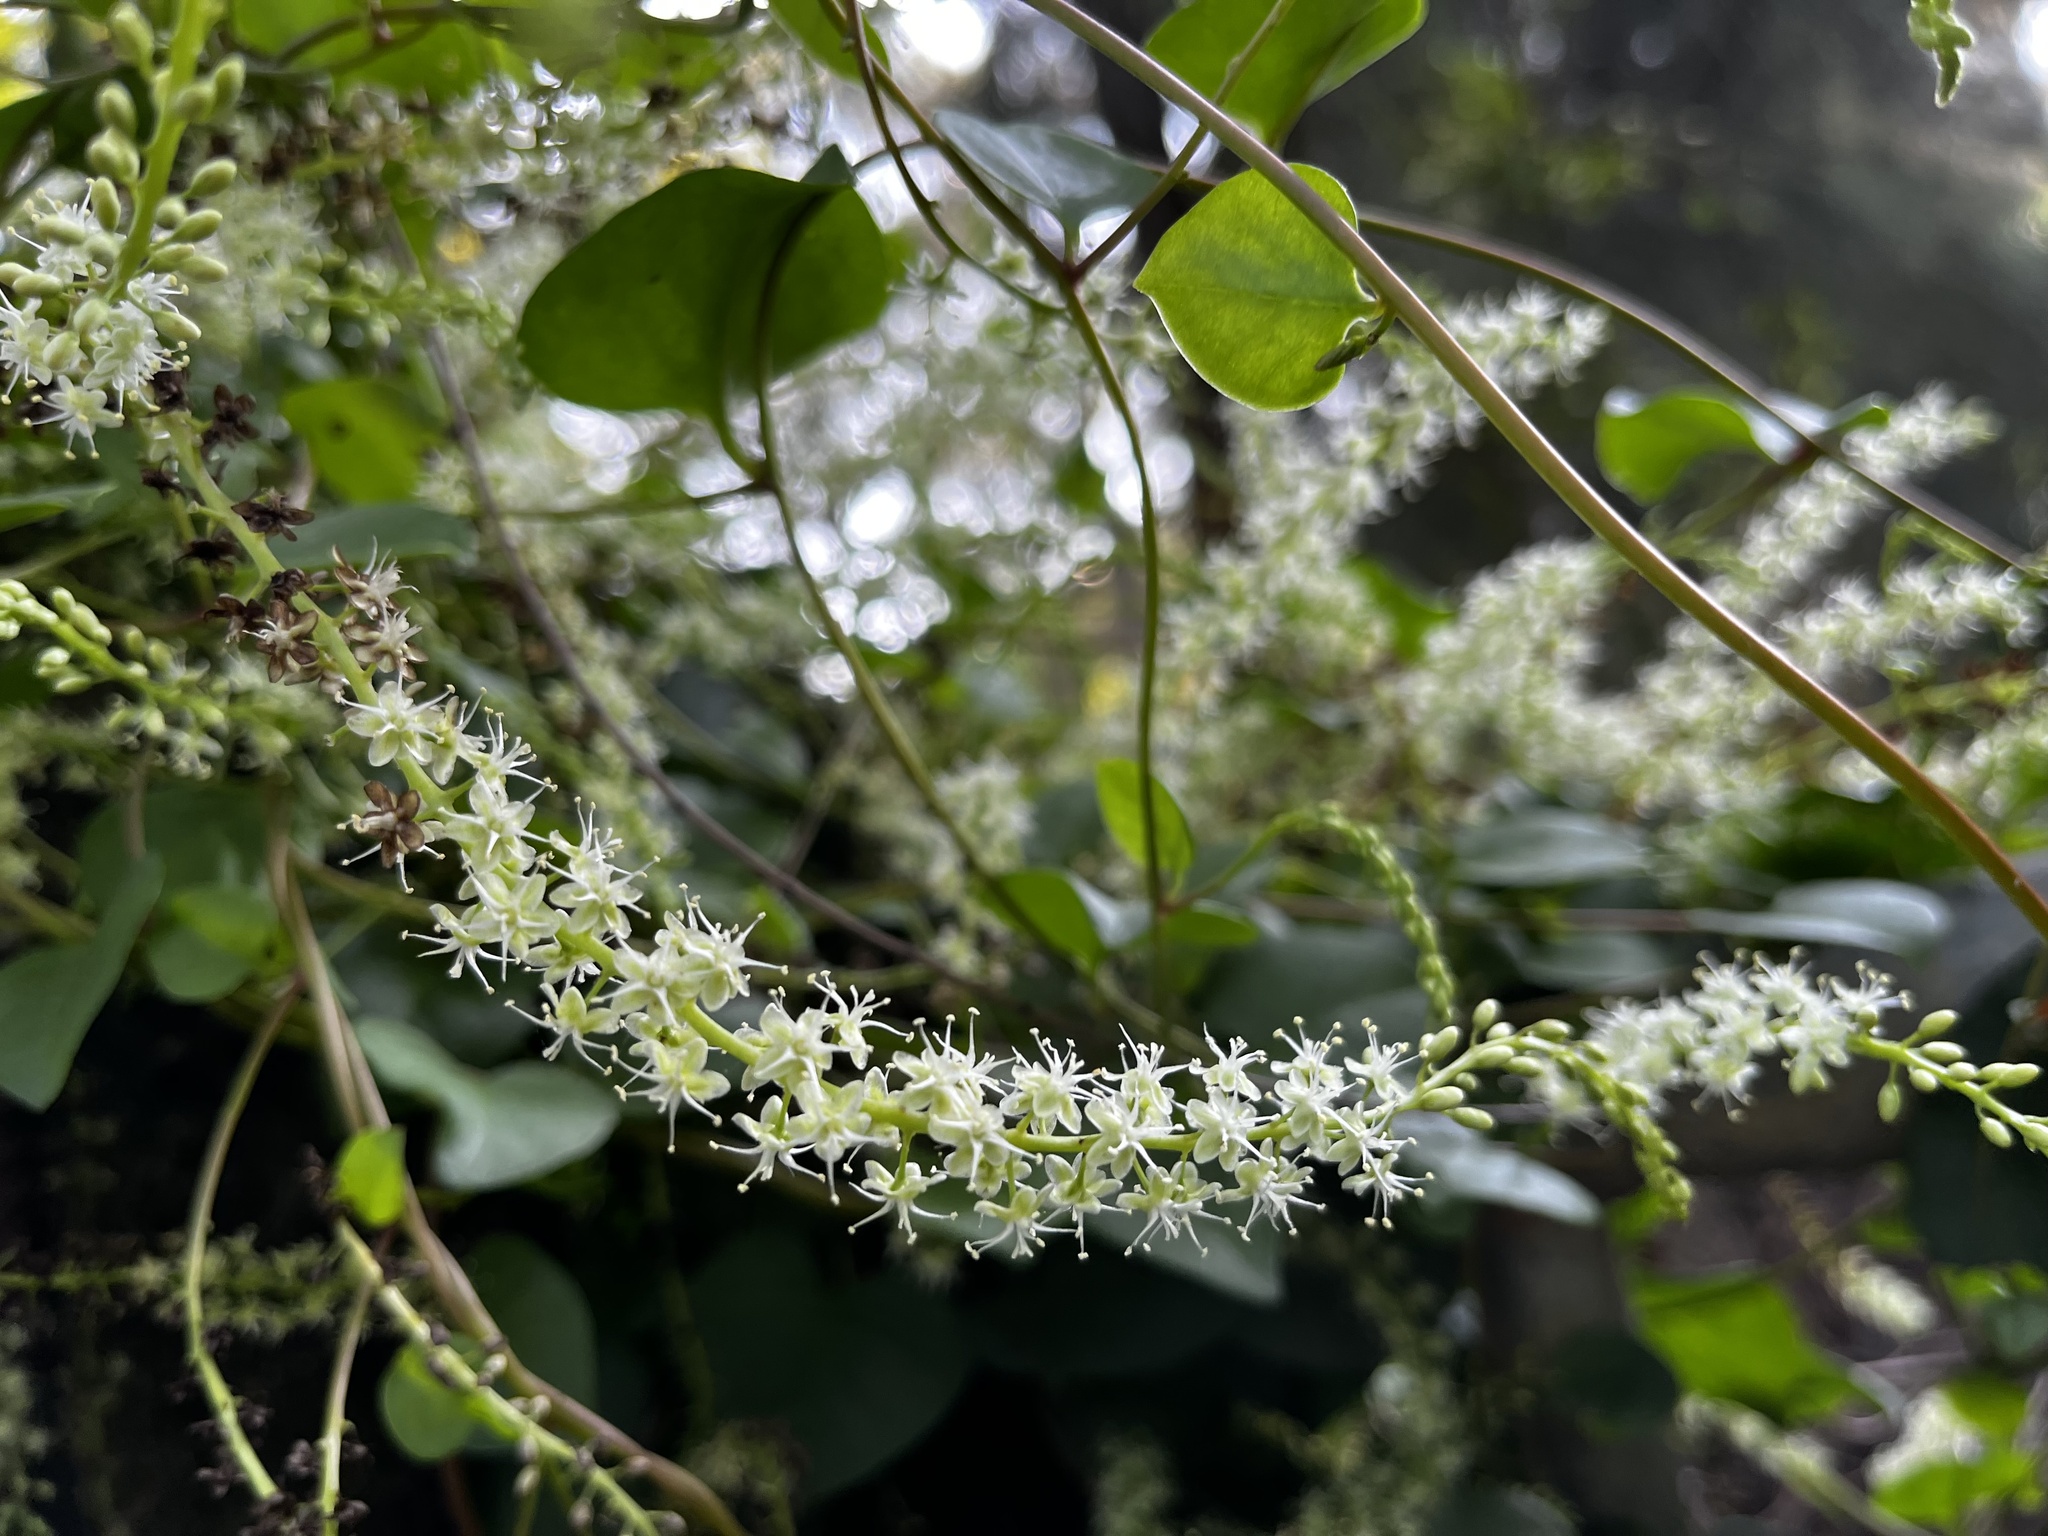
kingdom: Plantae
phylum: Tracheophyta
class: Magnoliopsida
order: Caryophyllales
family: Basellaceae
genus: Anredera
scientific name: Anredera cordifolia
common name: Heartleaf madeiravine
